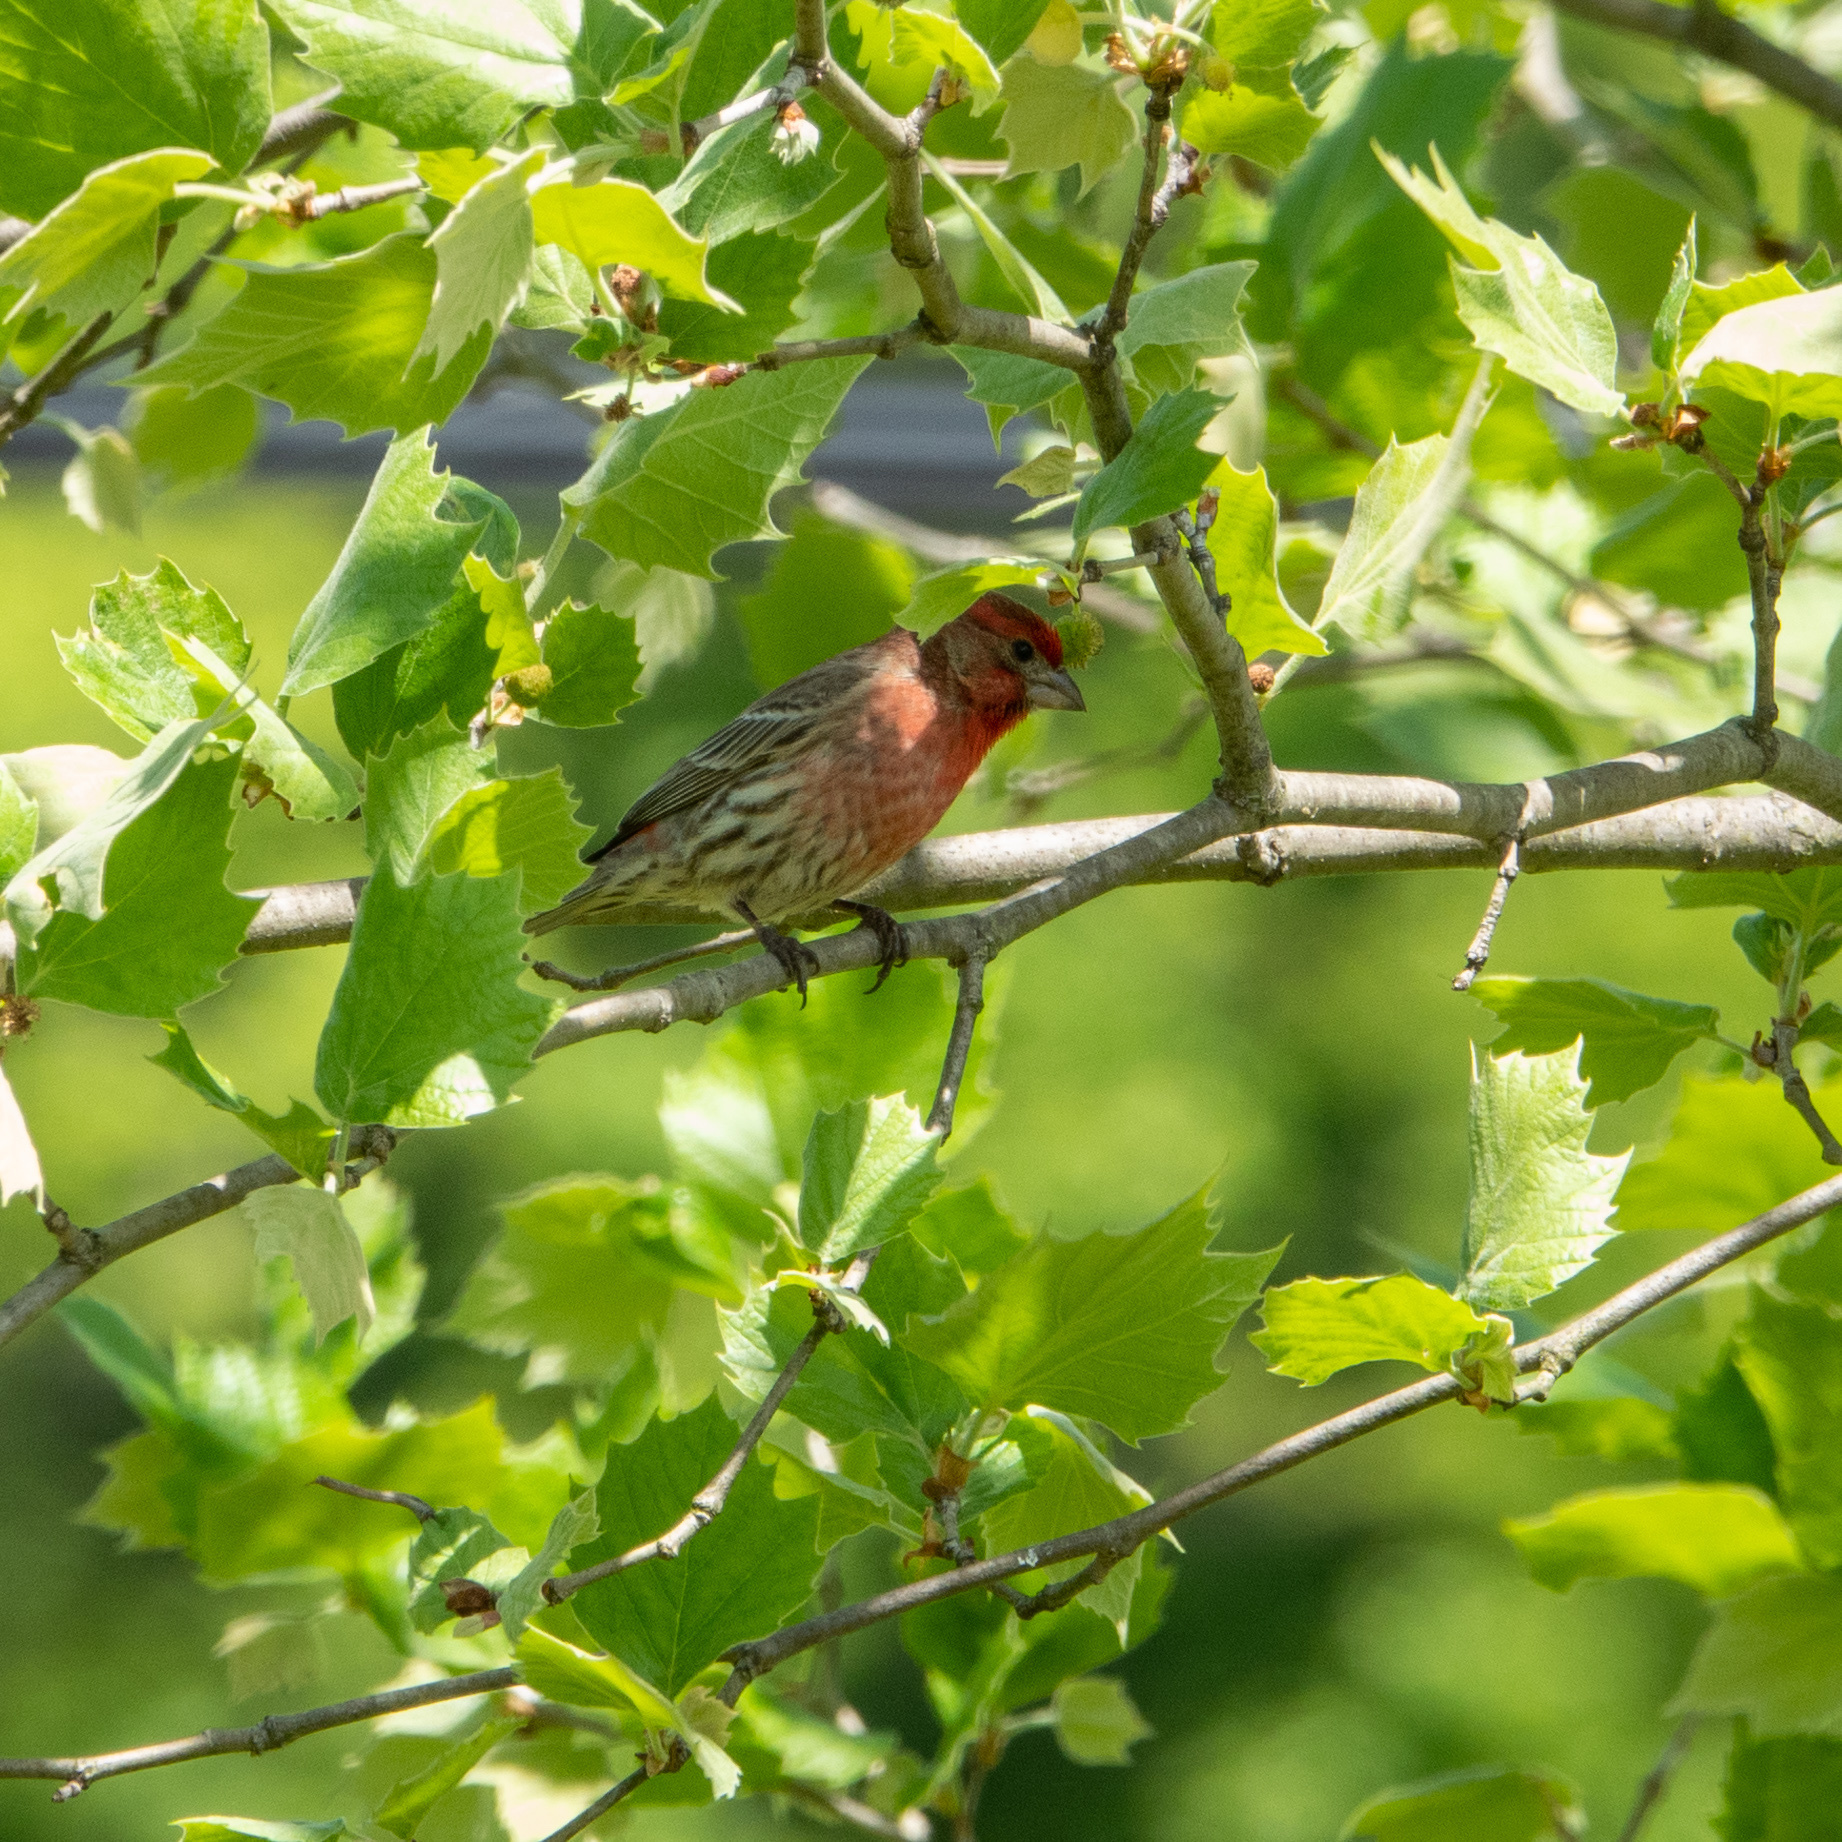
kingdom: Animalia
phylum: Chordata
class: Aves
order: Passeriformes
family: Fringillidae
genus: Haemorhous
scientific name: Haemorhous mexicanus
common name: House finch
